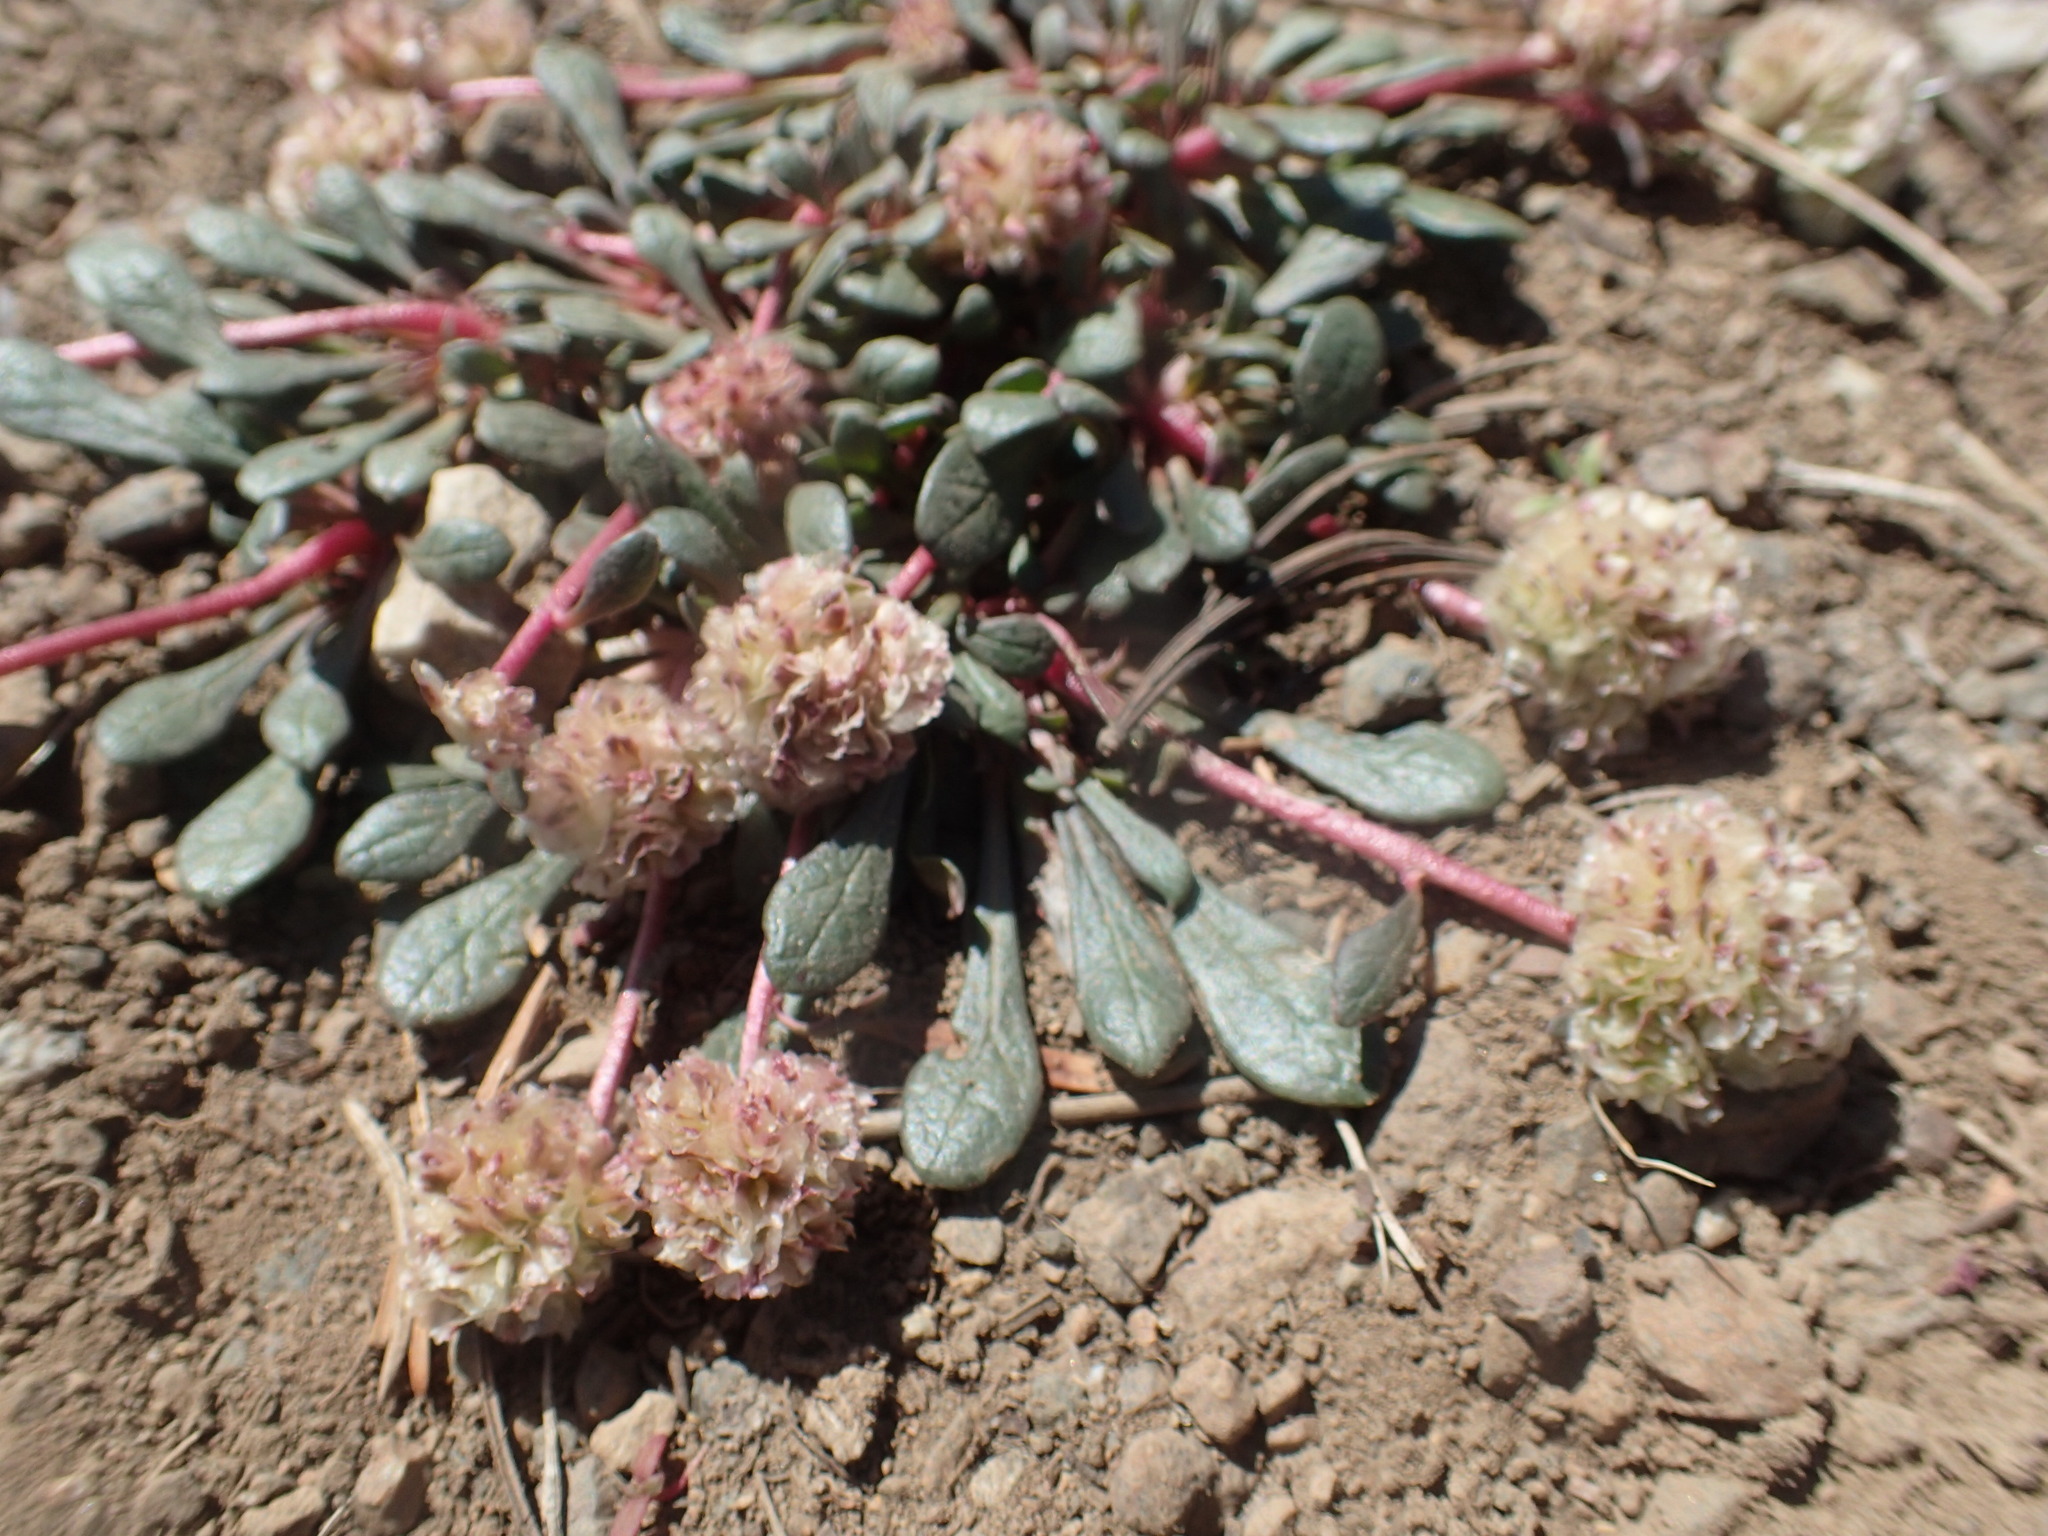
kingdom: Plantae
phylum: Tracheophyta
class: Magnoliopsida
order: Caryophyllales
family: Montiaceae
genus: Calyptridium
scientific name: Calyptridium umbellatum
